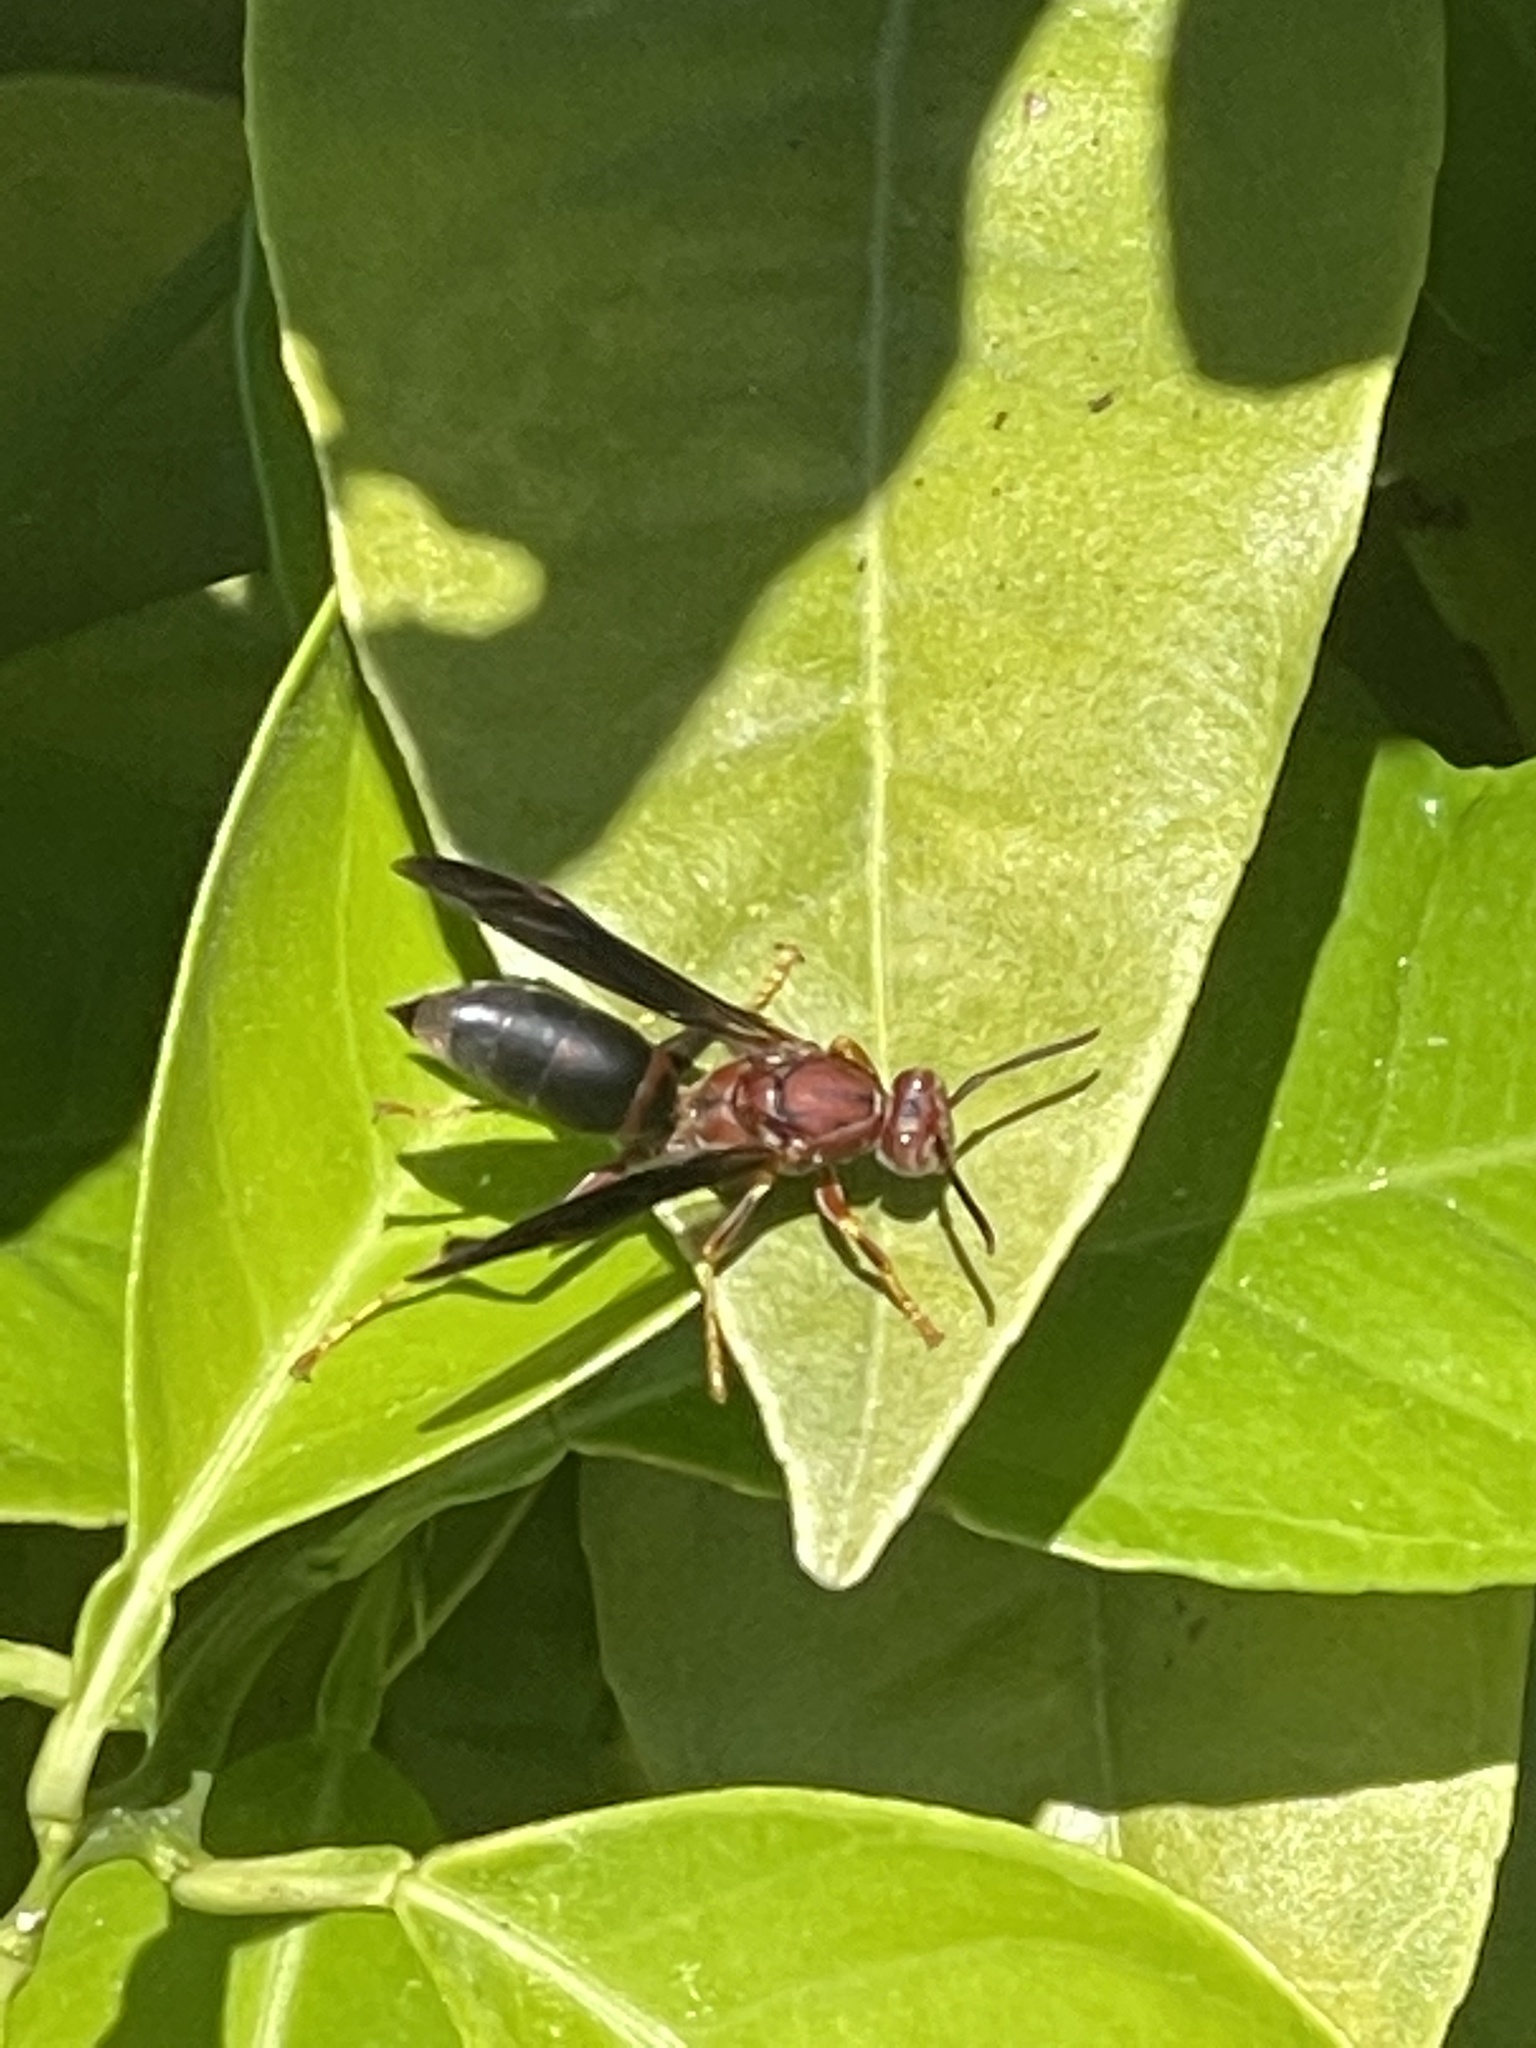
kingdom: Animalia
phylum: Arthropoda
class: Insecta
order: Hymenoptera
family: Eumenidae
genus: Polistes
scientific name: Polistes metricus
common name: Metric paper wasp
